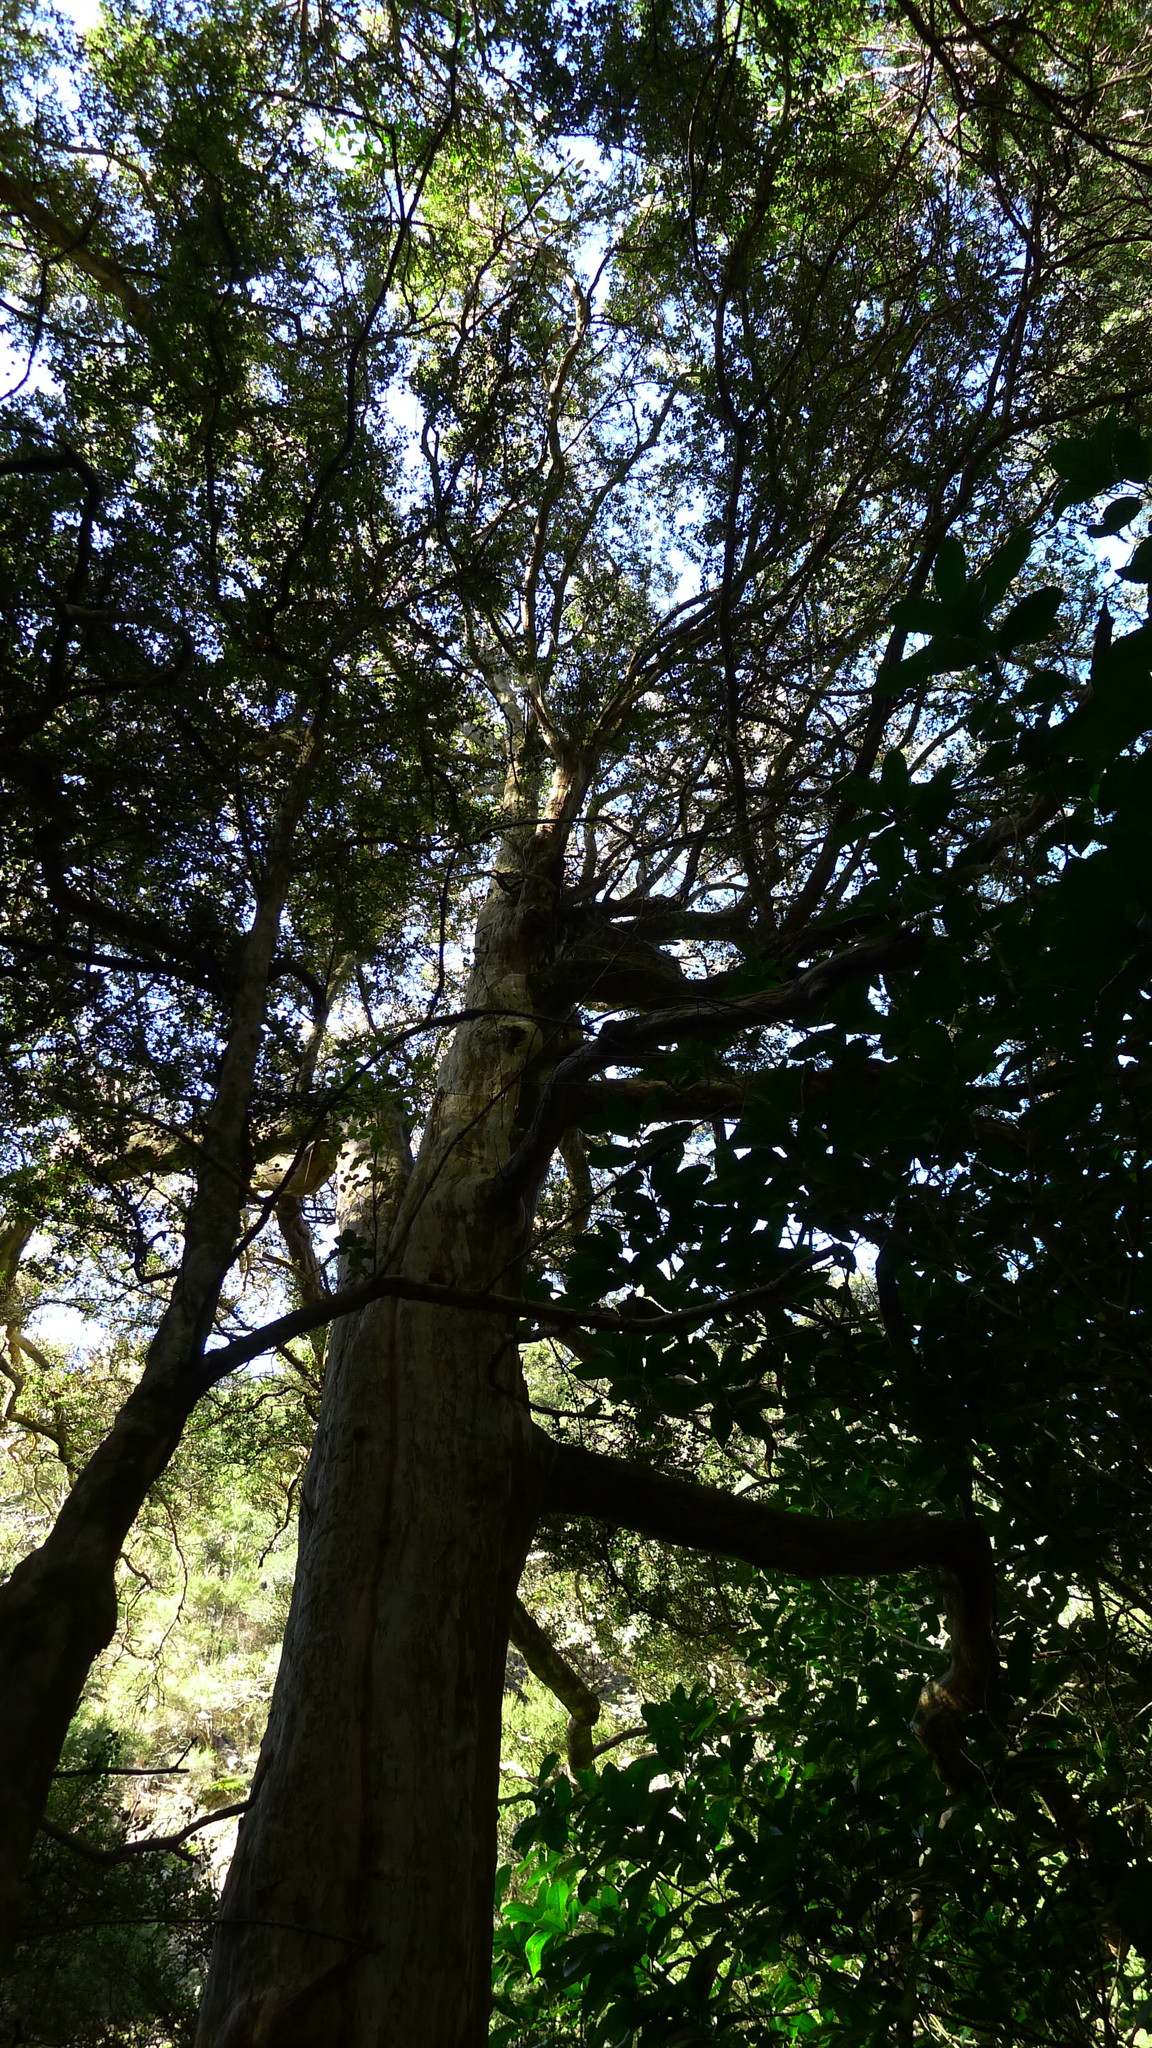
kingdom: Plantae
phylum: Tracheophyta
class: Magnoliopsida
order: Myrtales
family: Myrtaceae
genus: Lophomyrtus
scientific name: Lophomyrtus obcordata
